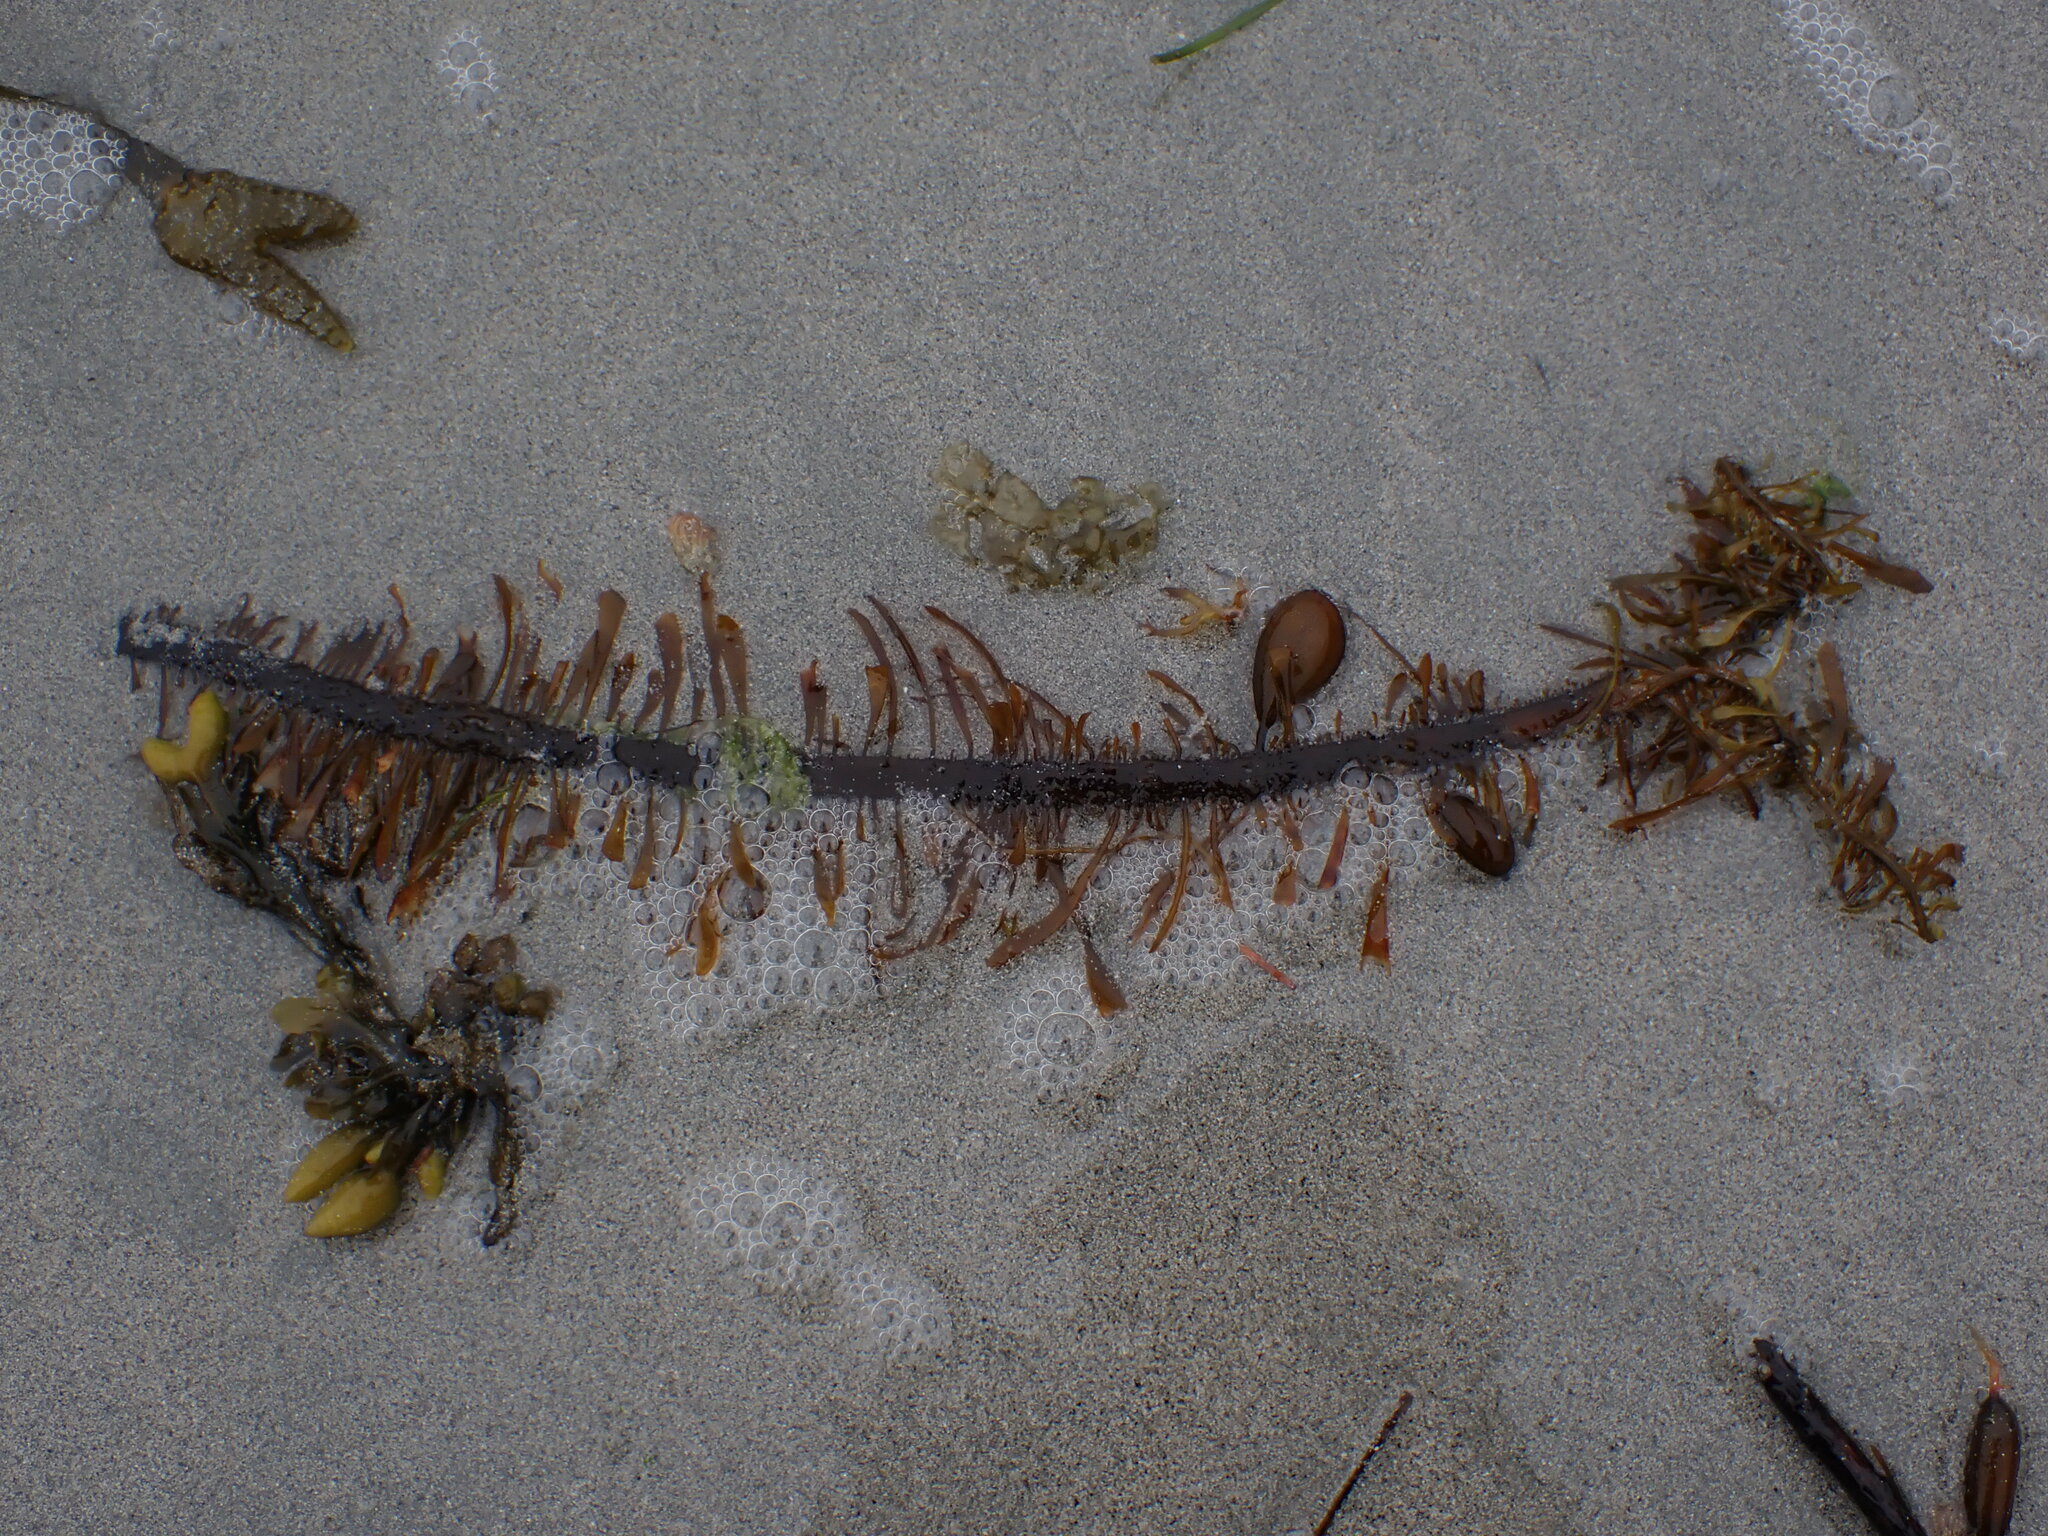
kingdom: Chromista
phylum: Ochrophyta
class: Phaeophyceae
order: Laminariales
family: Lessoniaceae
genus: Egregia
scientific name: Egregia menziesii
